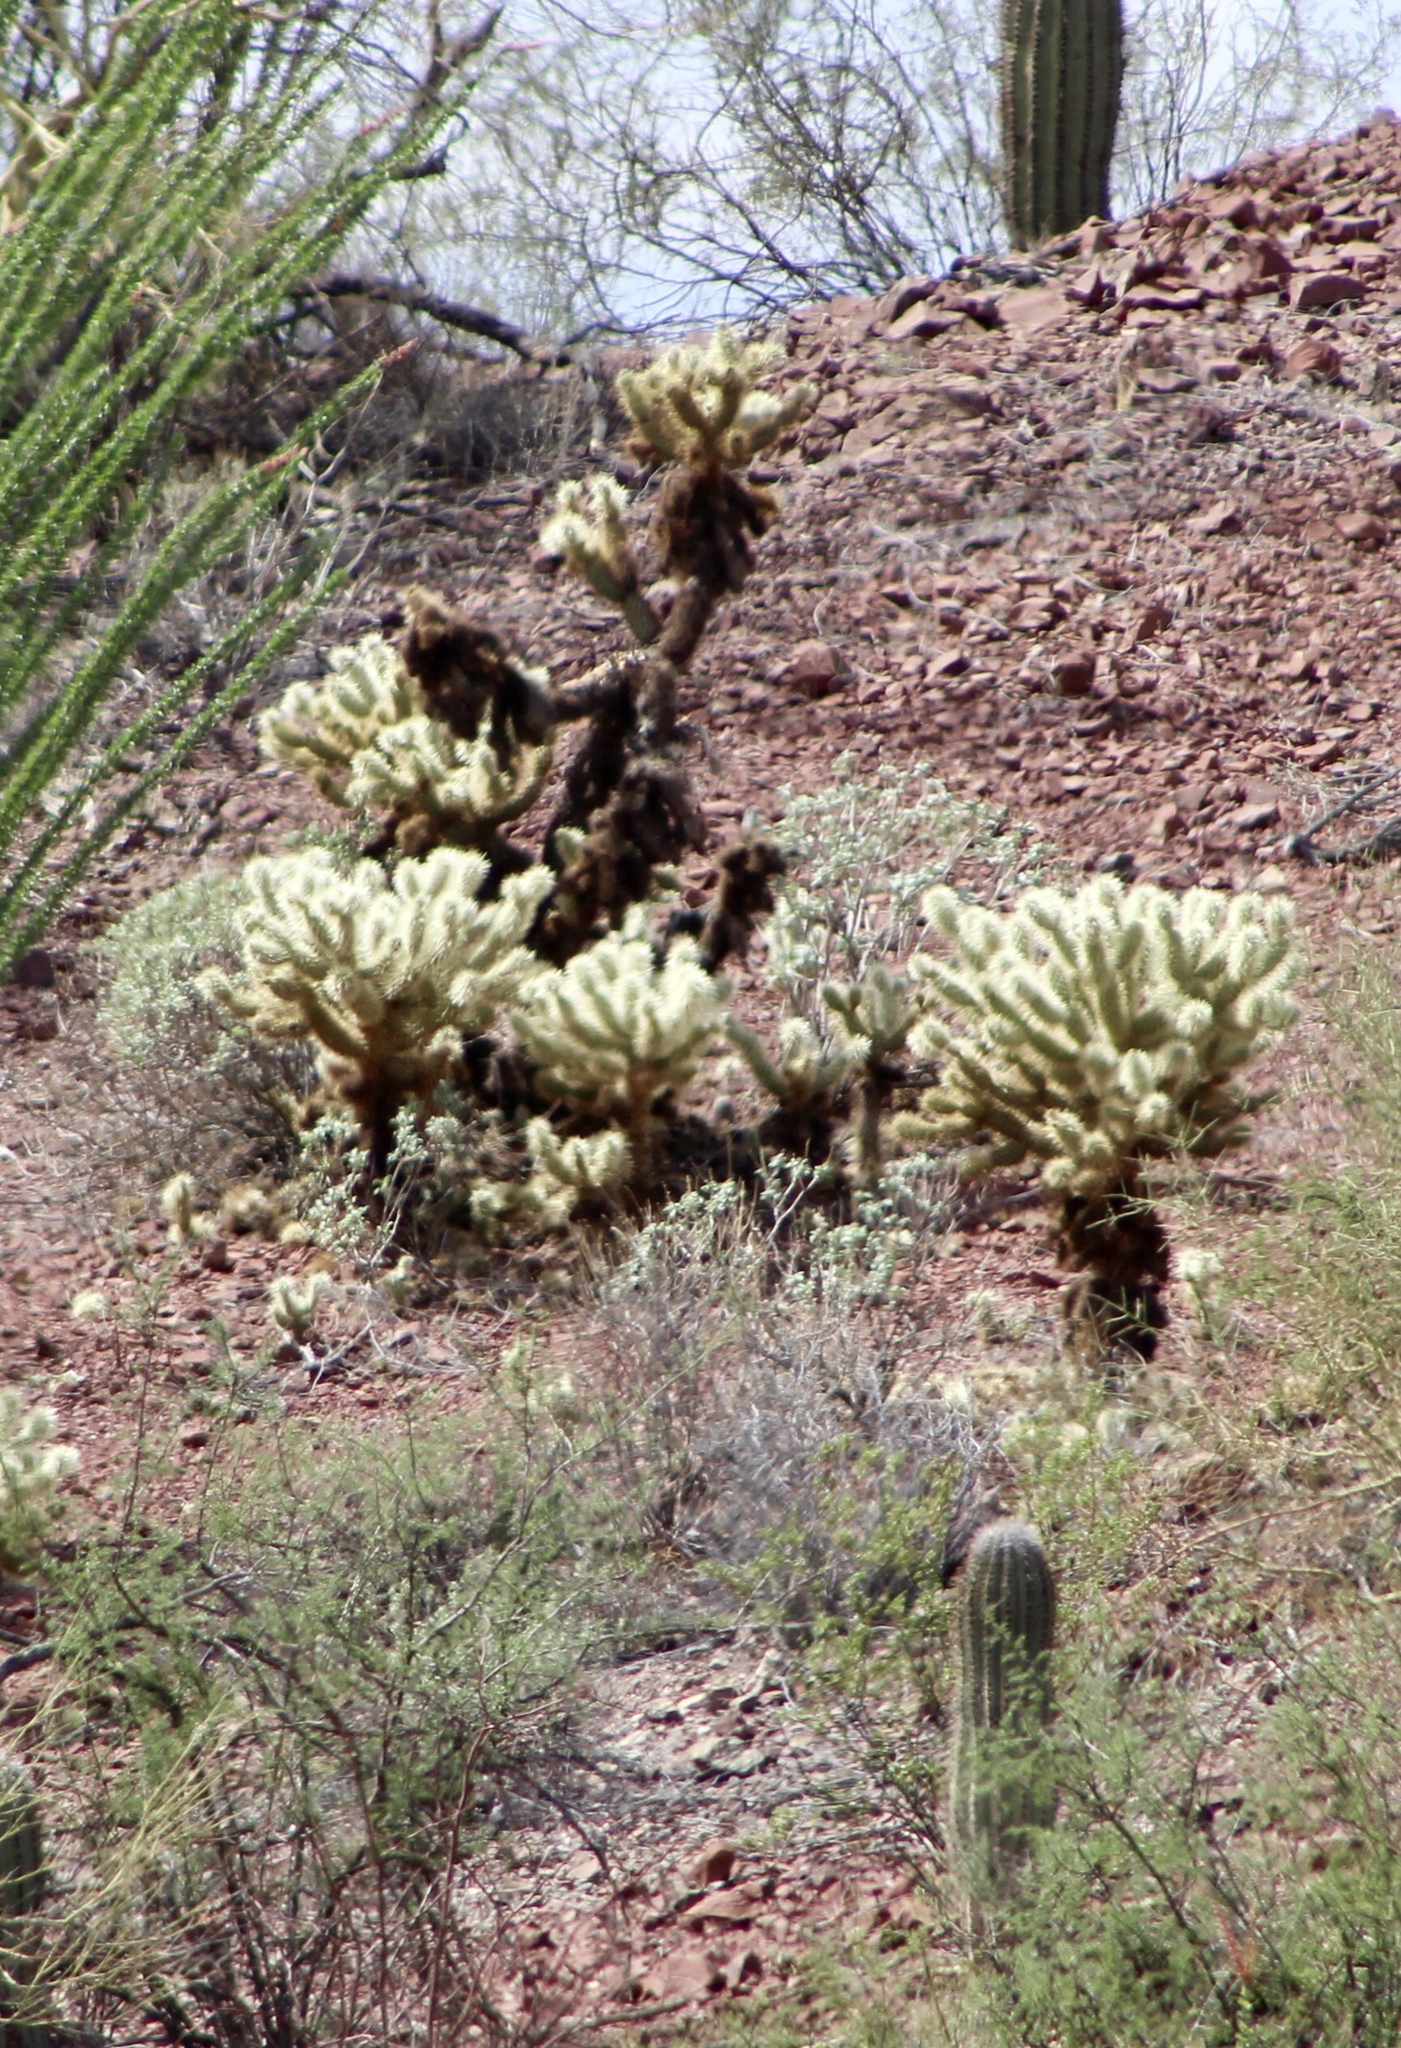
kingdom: Plantae
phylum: Tracheophyta
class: Magnoliopsida
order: Caryophyllales
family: Cactaceae
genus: Cylindropuntia
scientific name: Cylindropuntia fosbergii
